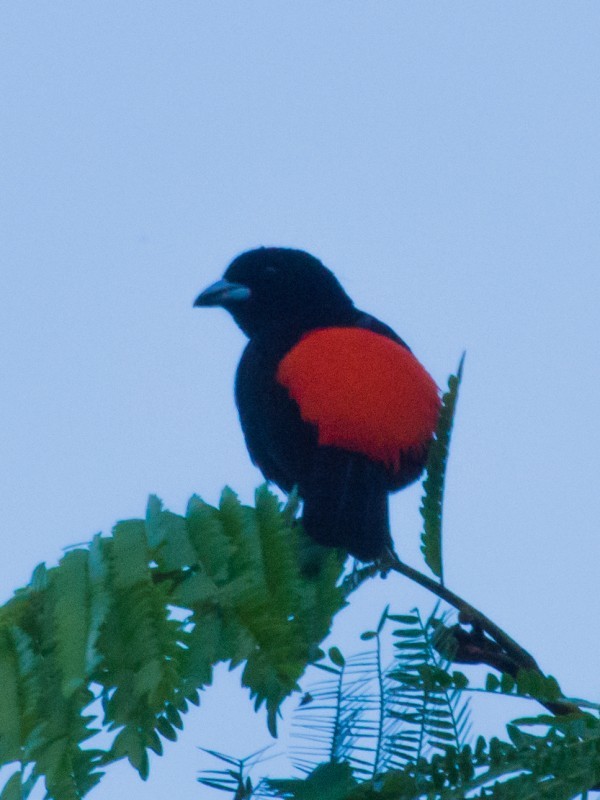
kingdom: Animalia
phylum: Chordata
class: Aves
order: Passeriformes
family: Thraupidae
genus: Ramphocelus
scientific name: Ramphocelus passerinii
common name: Passerini's tanager
